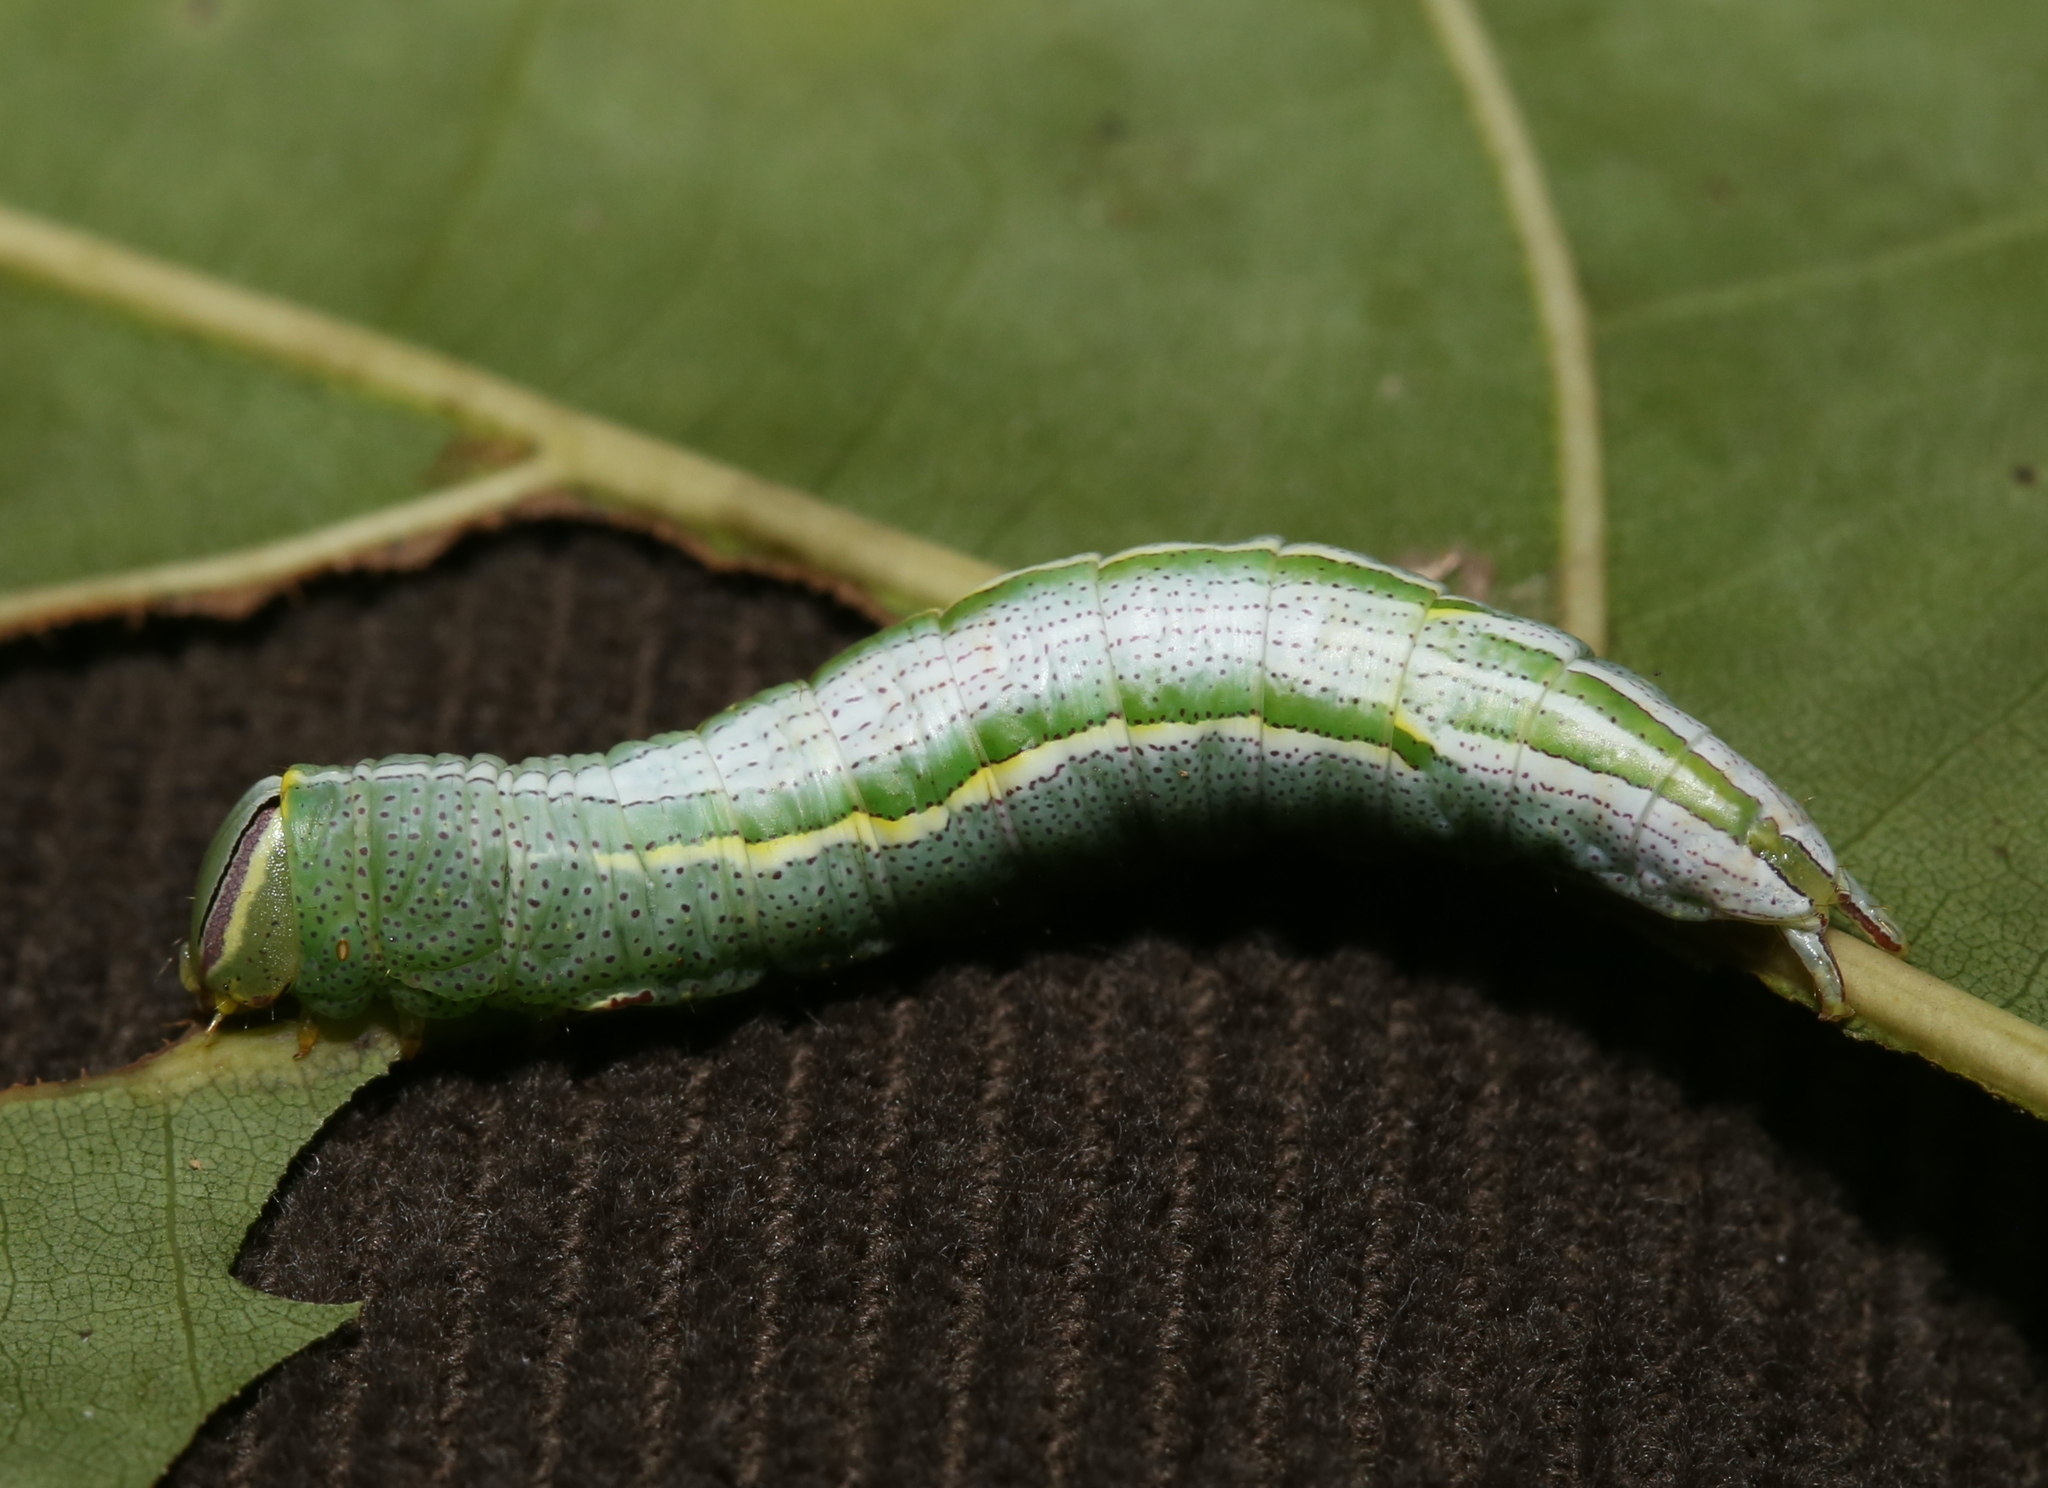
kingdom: Animalia
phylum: Arthropoda
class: Insecta
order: Lepidoptera
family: Notodontidae
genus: Disphragis
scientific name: Disphragis Cecrita guttivitta
